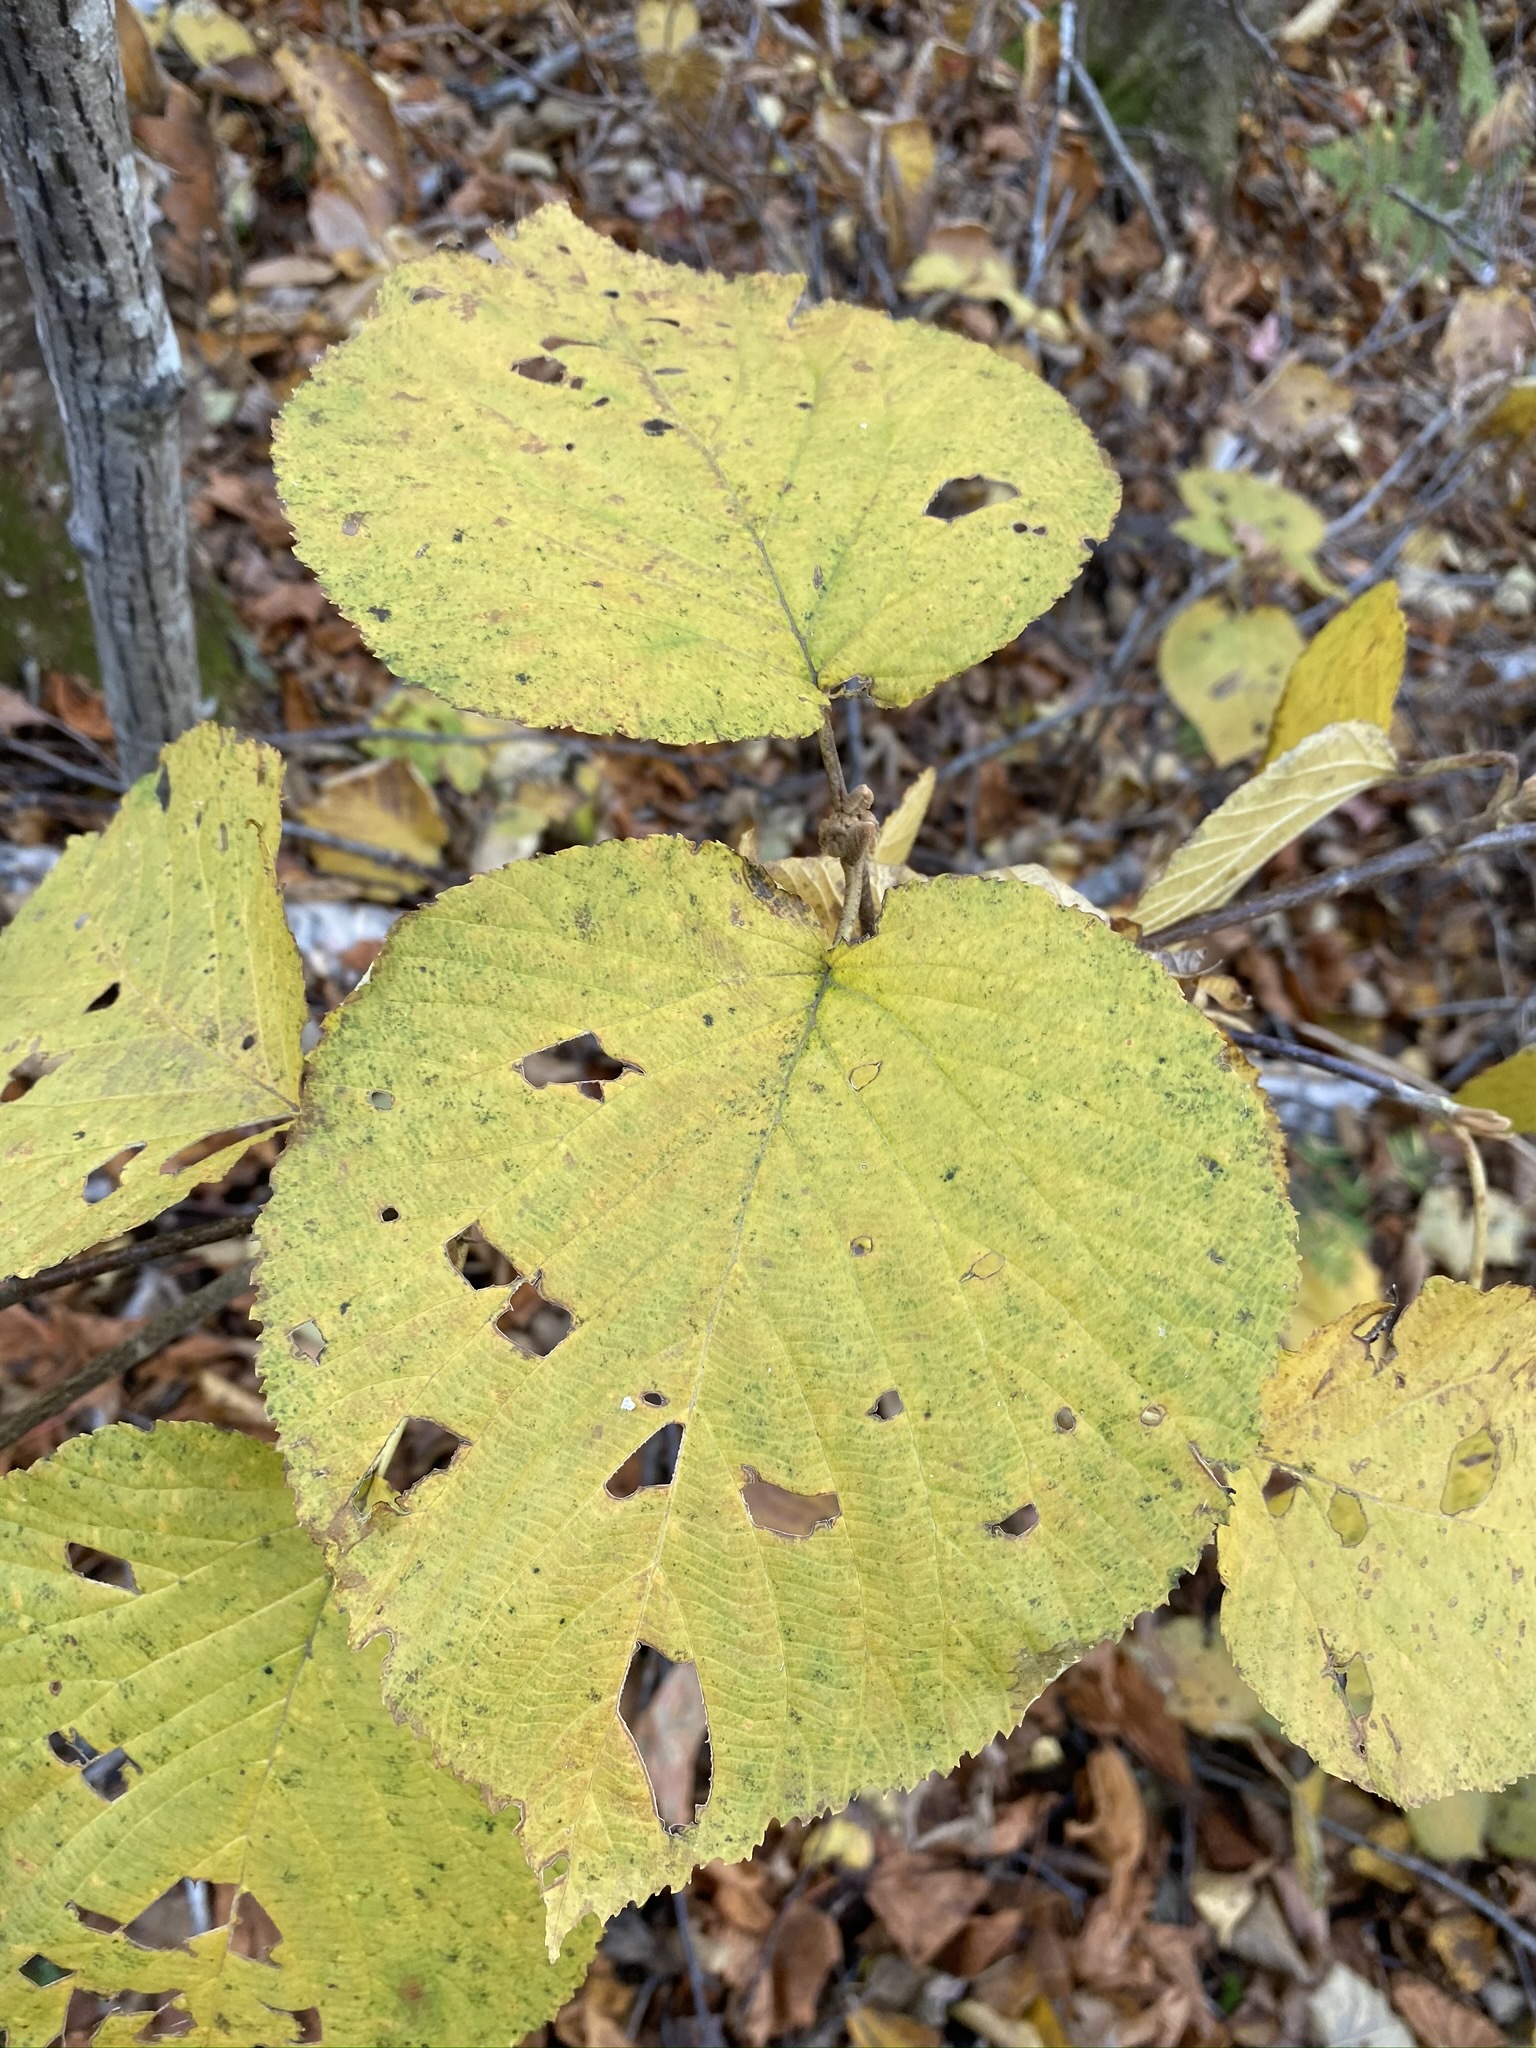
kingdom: Plantae
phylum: Tracheophyta
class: Magnoliopsida
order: Dipsacales
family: Viburnaceae
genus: Viburnum
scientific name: Viburnum lantanoides
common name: Hobblebush
